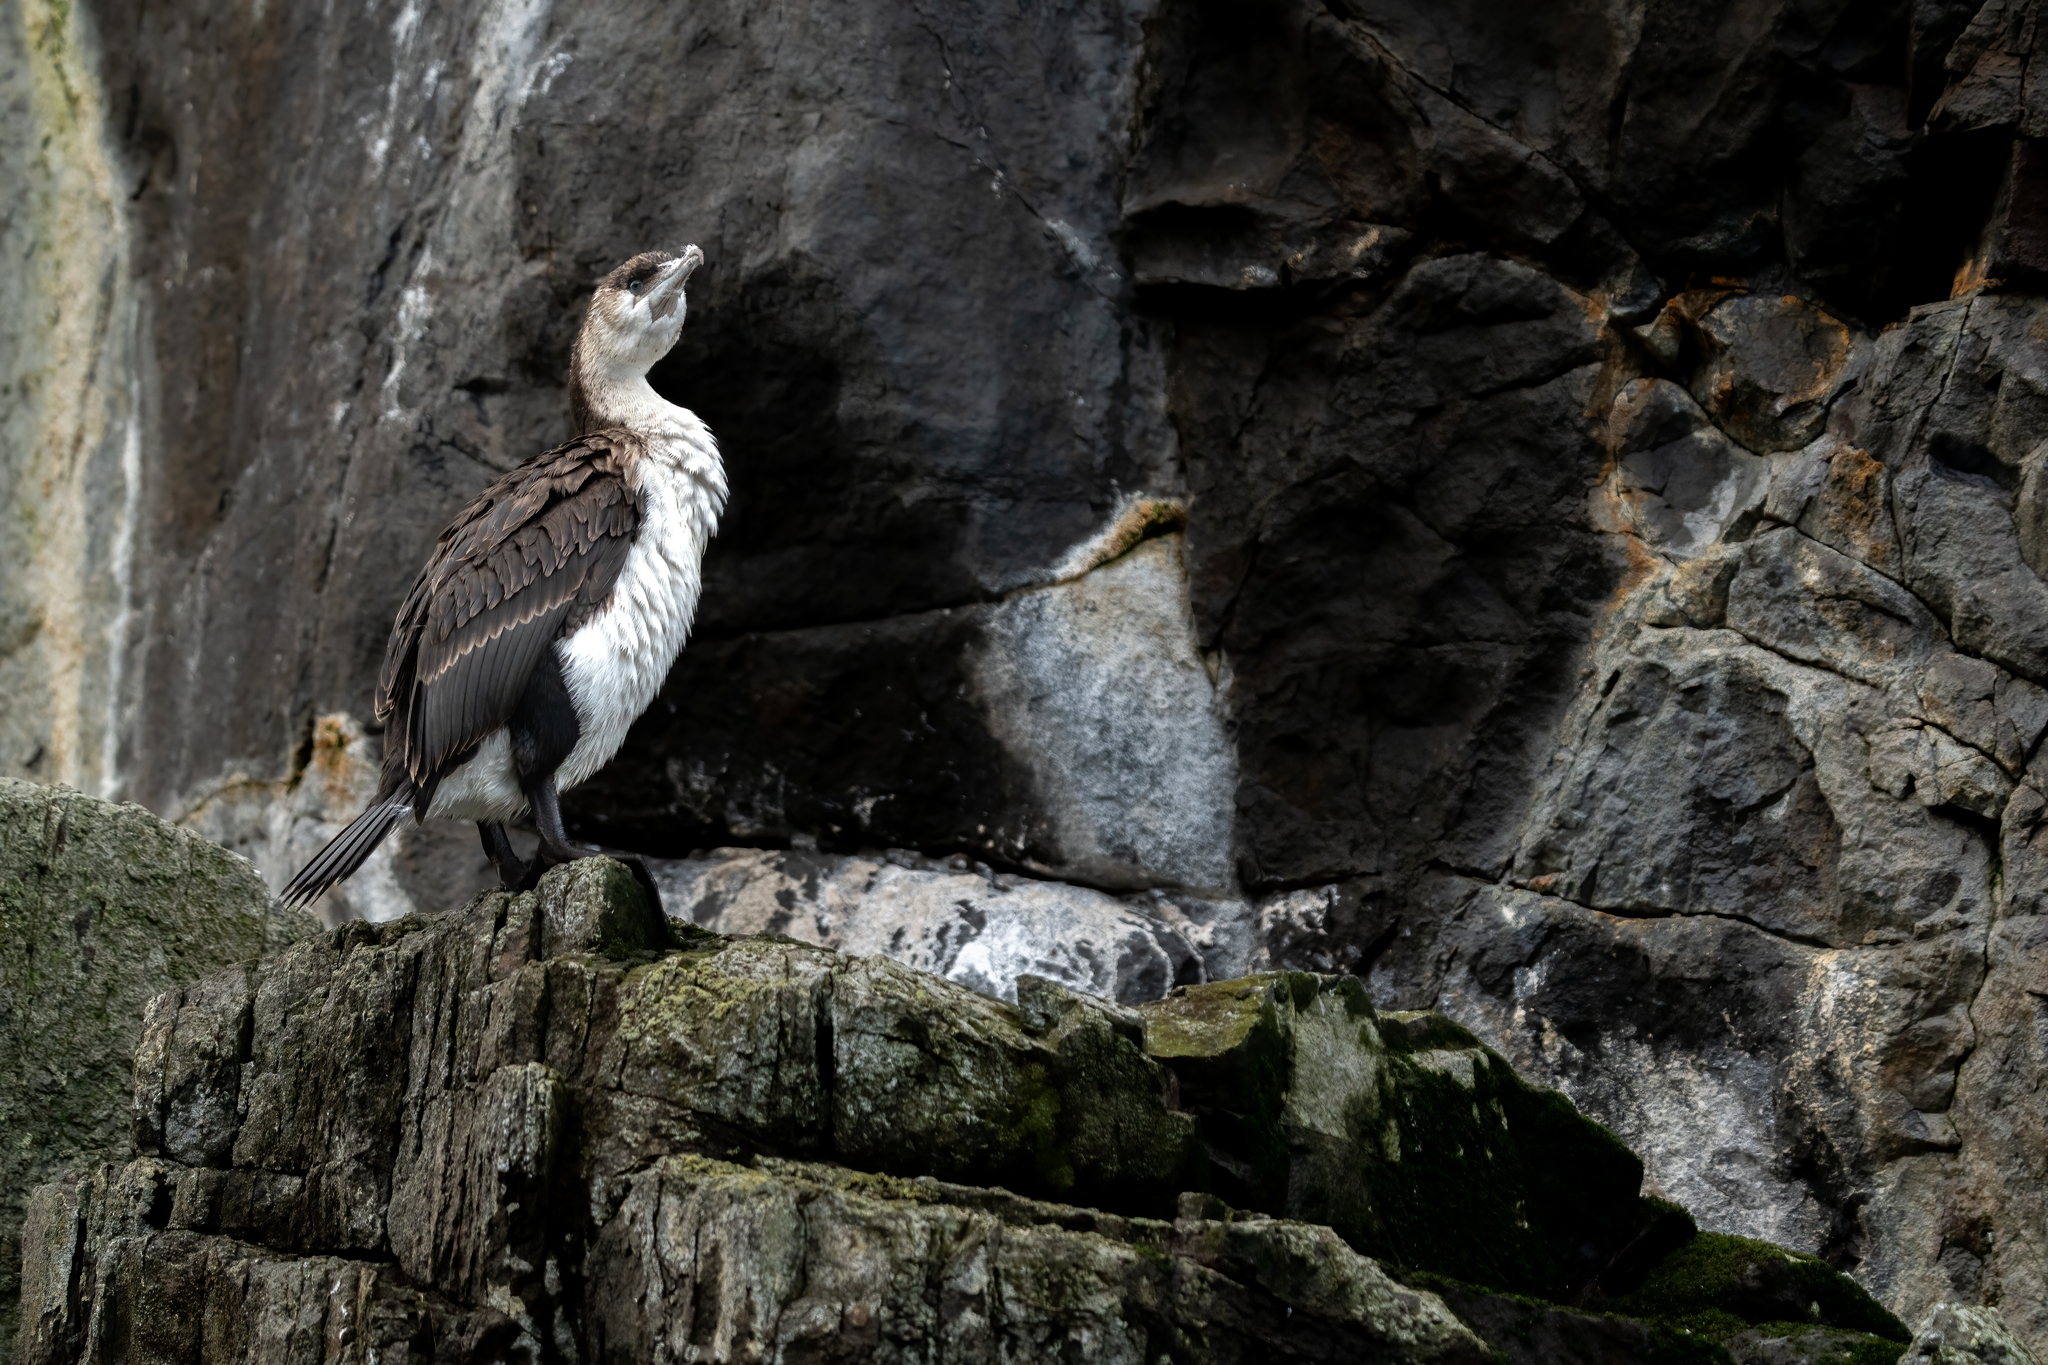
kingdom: Animalia
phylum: Chordata
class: Aves
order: Suliformes
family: Phalacrocoracidae
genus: Phalacrocorax
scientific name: Phalacrocorax fuscescens
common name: Black-faced cormorant
